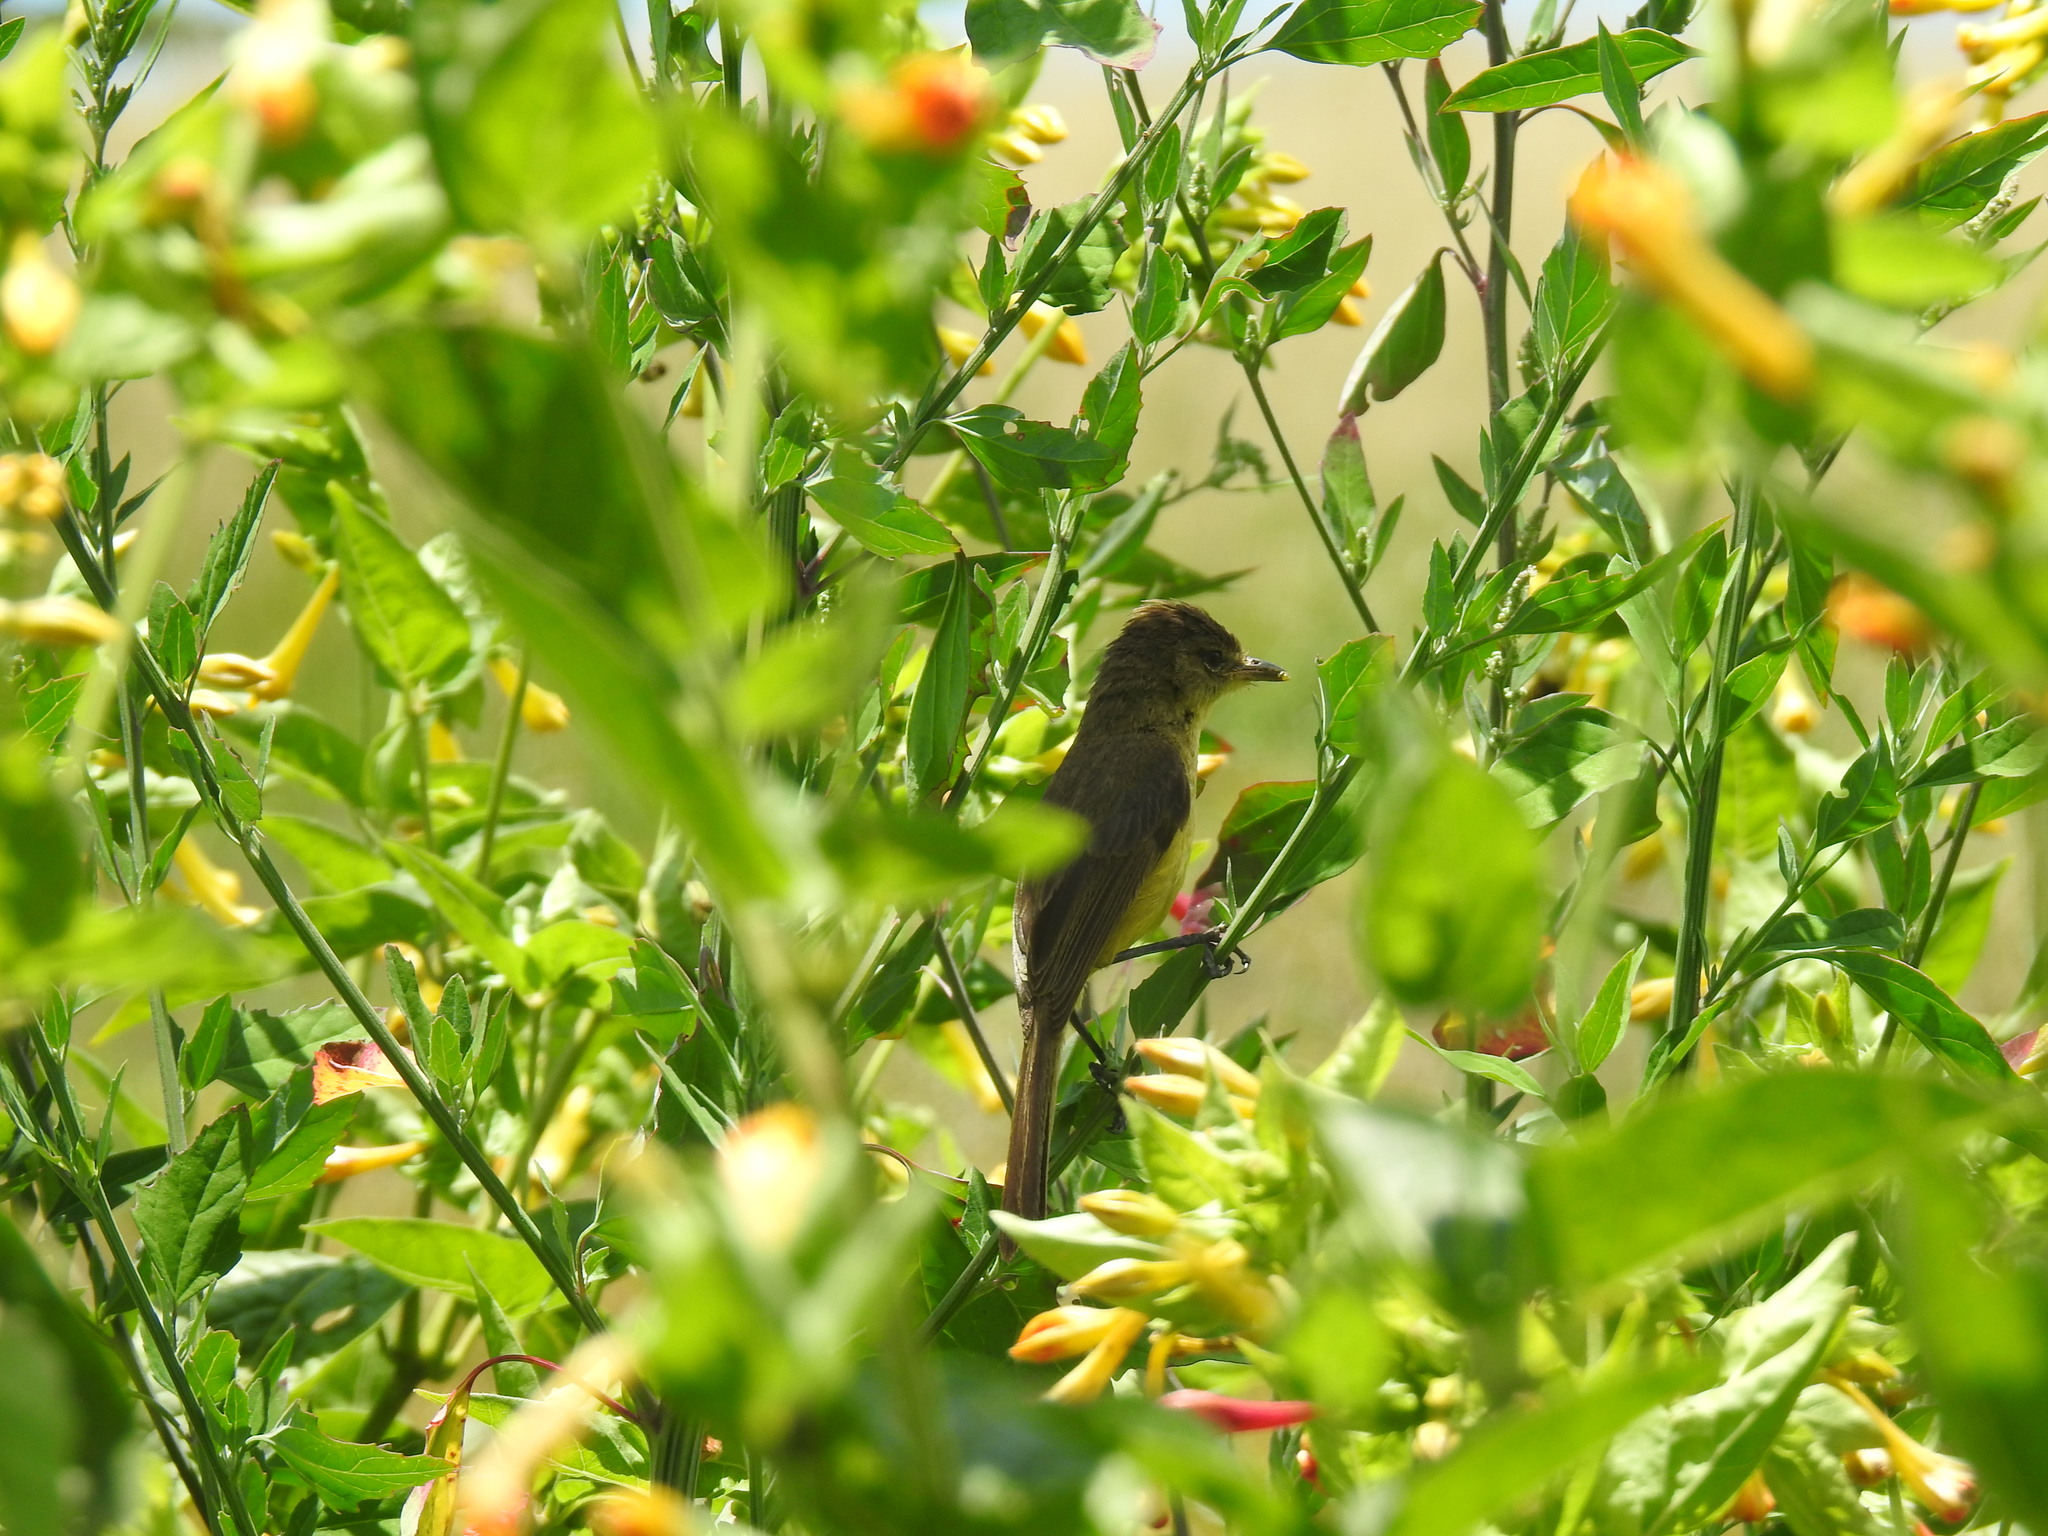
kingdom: Animalia
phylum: Chordata
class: Aves
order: Passeriformes
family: Acrocephalidae
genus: Iduna
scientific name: Iduna natalensis
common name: African yellow warbler
